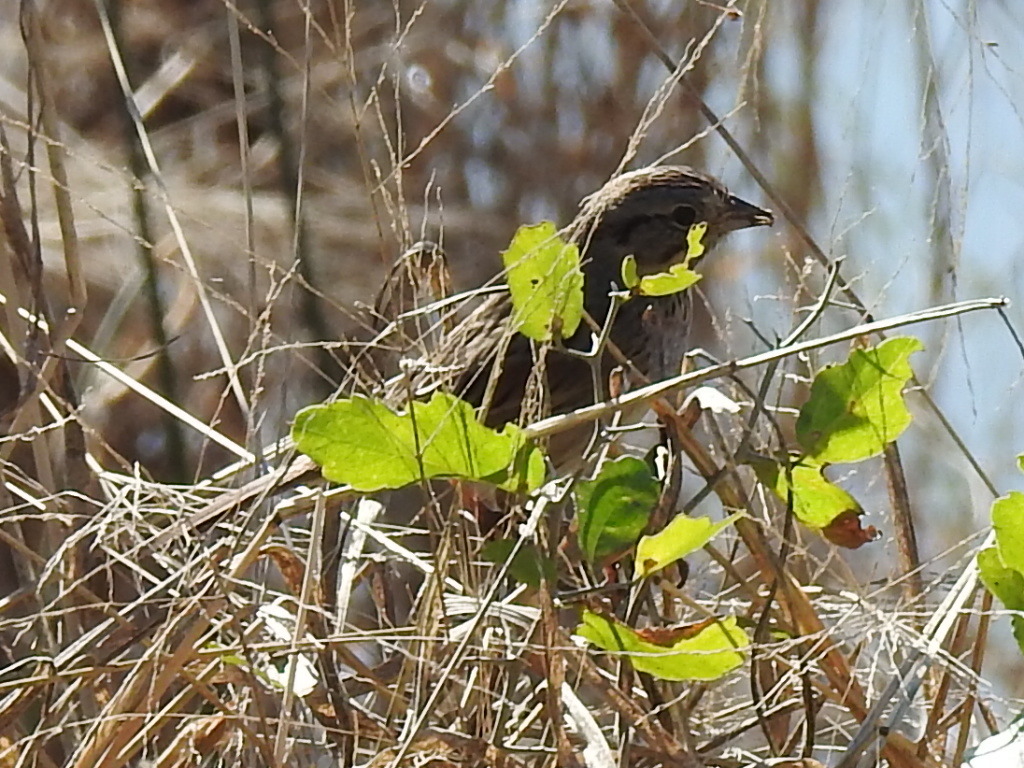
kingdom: Animalia
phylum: Chordata
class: Aves
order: Passeriformes
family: Passerellidae
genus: Melospiza
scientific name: Melospiza lincolnii
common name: Lincoln's sparrow
